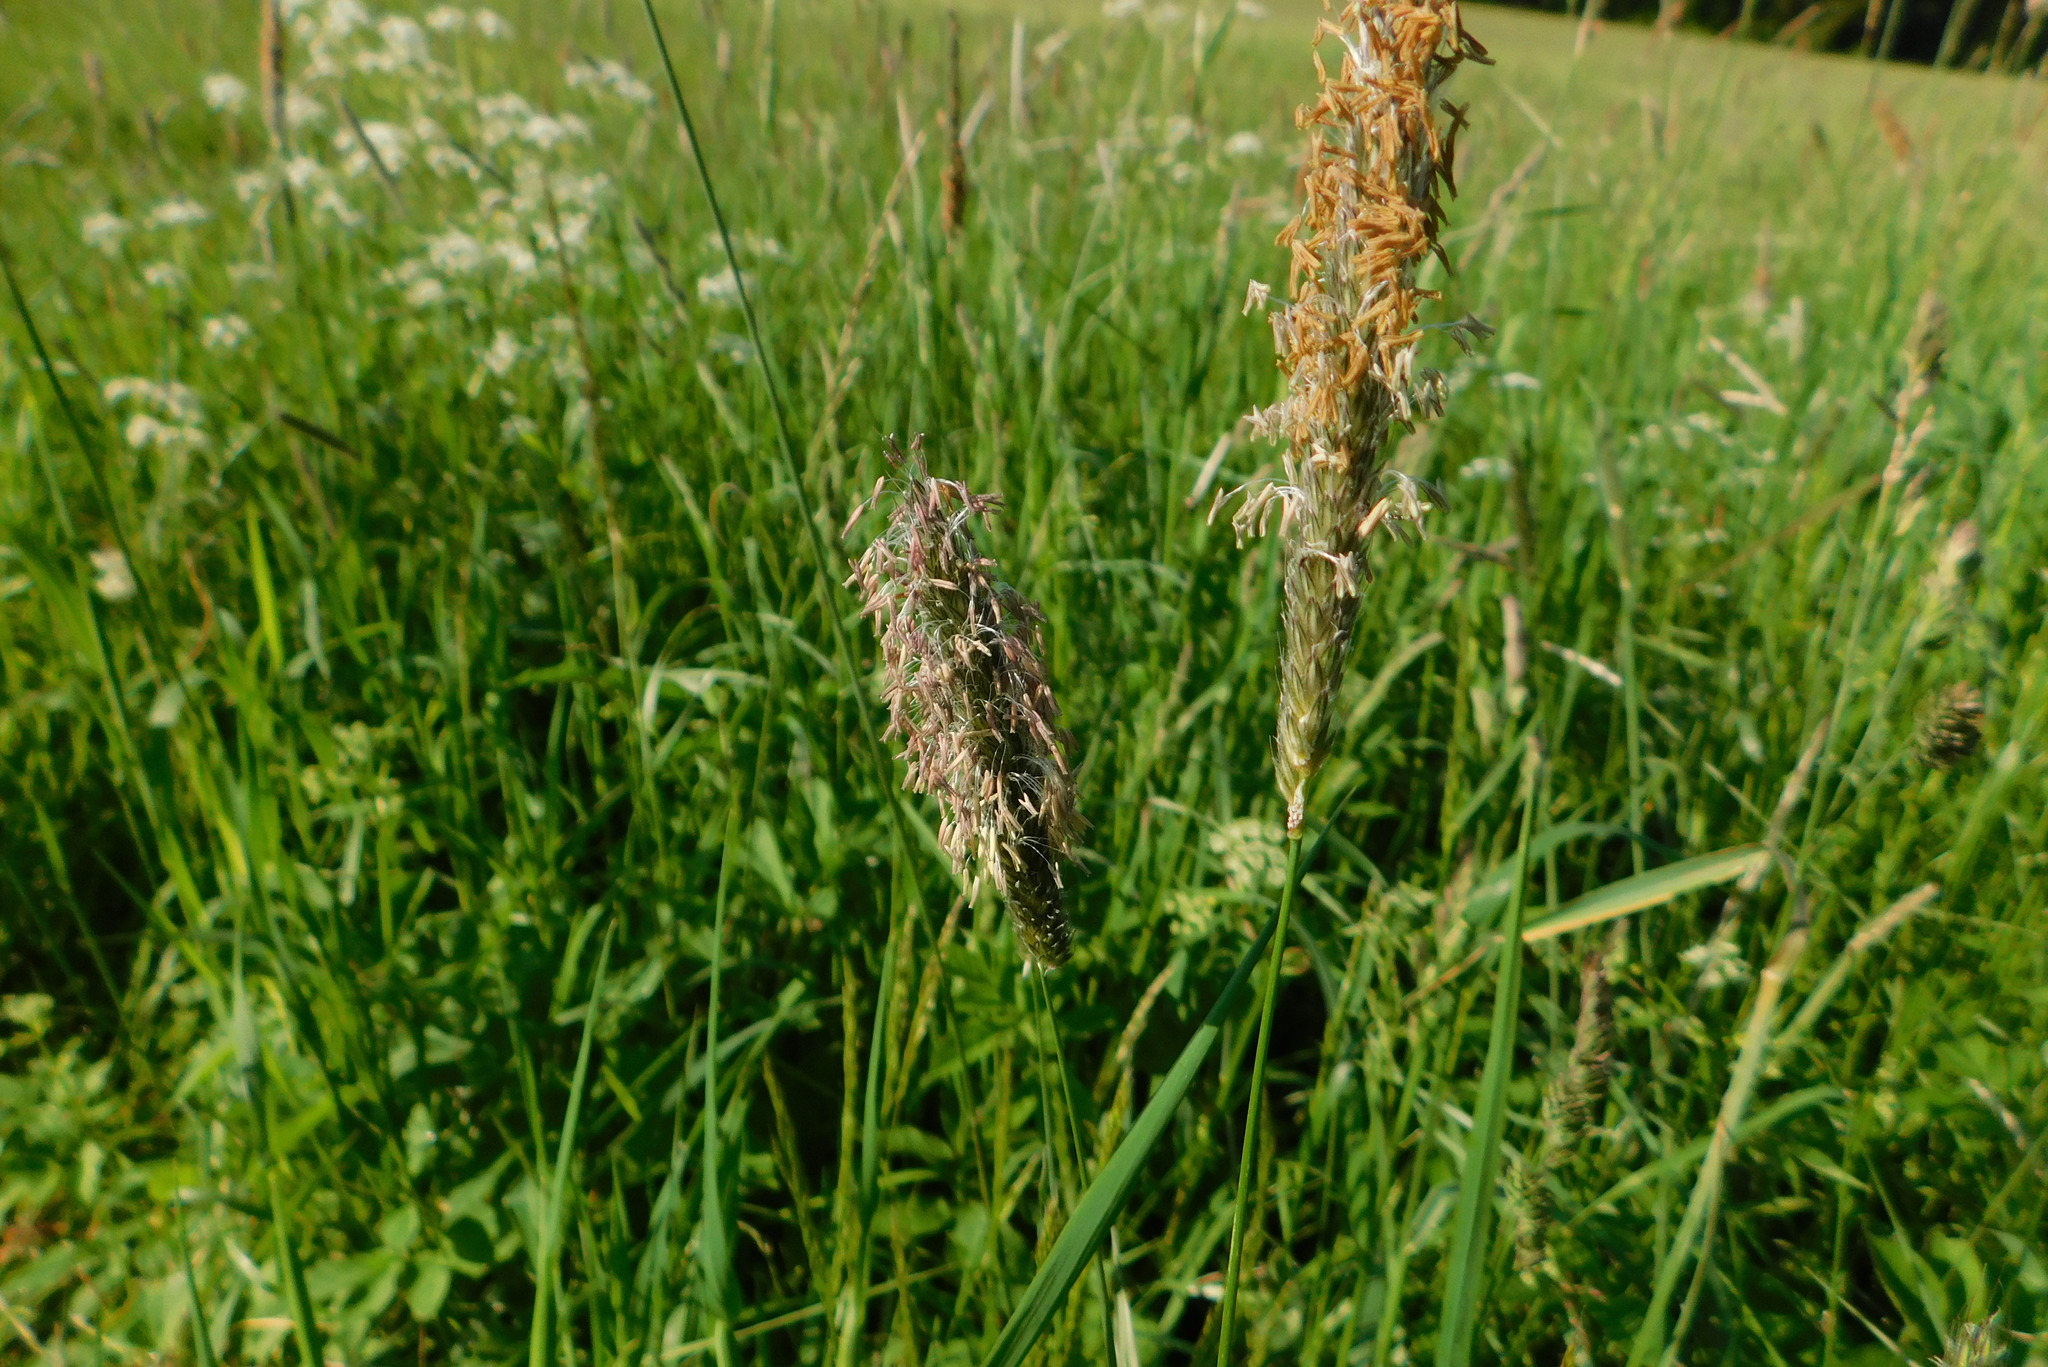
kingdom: Plantae
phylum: Tracheophyta
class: Liliopsida
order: Poales
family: Poaceae
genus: Alopecurus
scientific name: Alopecurus pratensis
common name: Meadow foxtail
